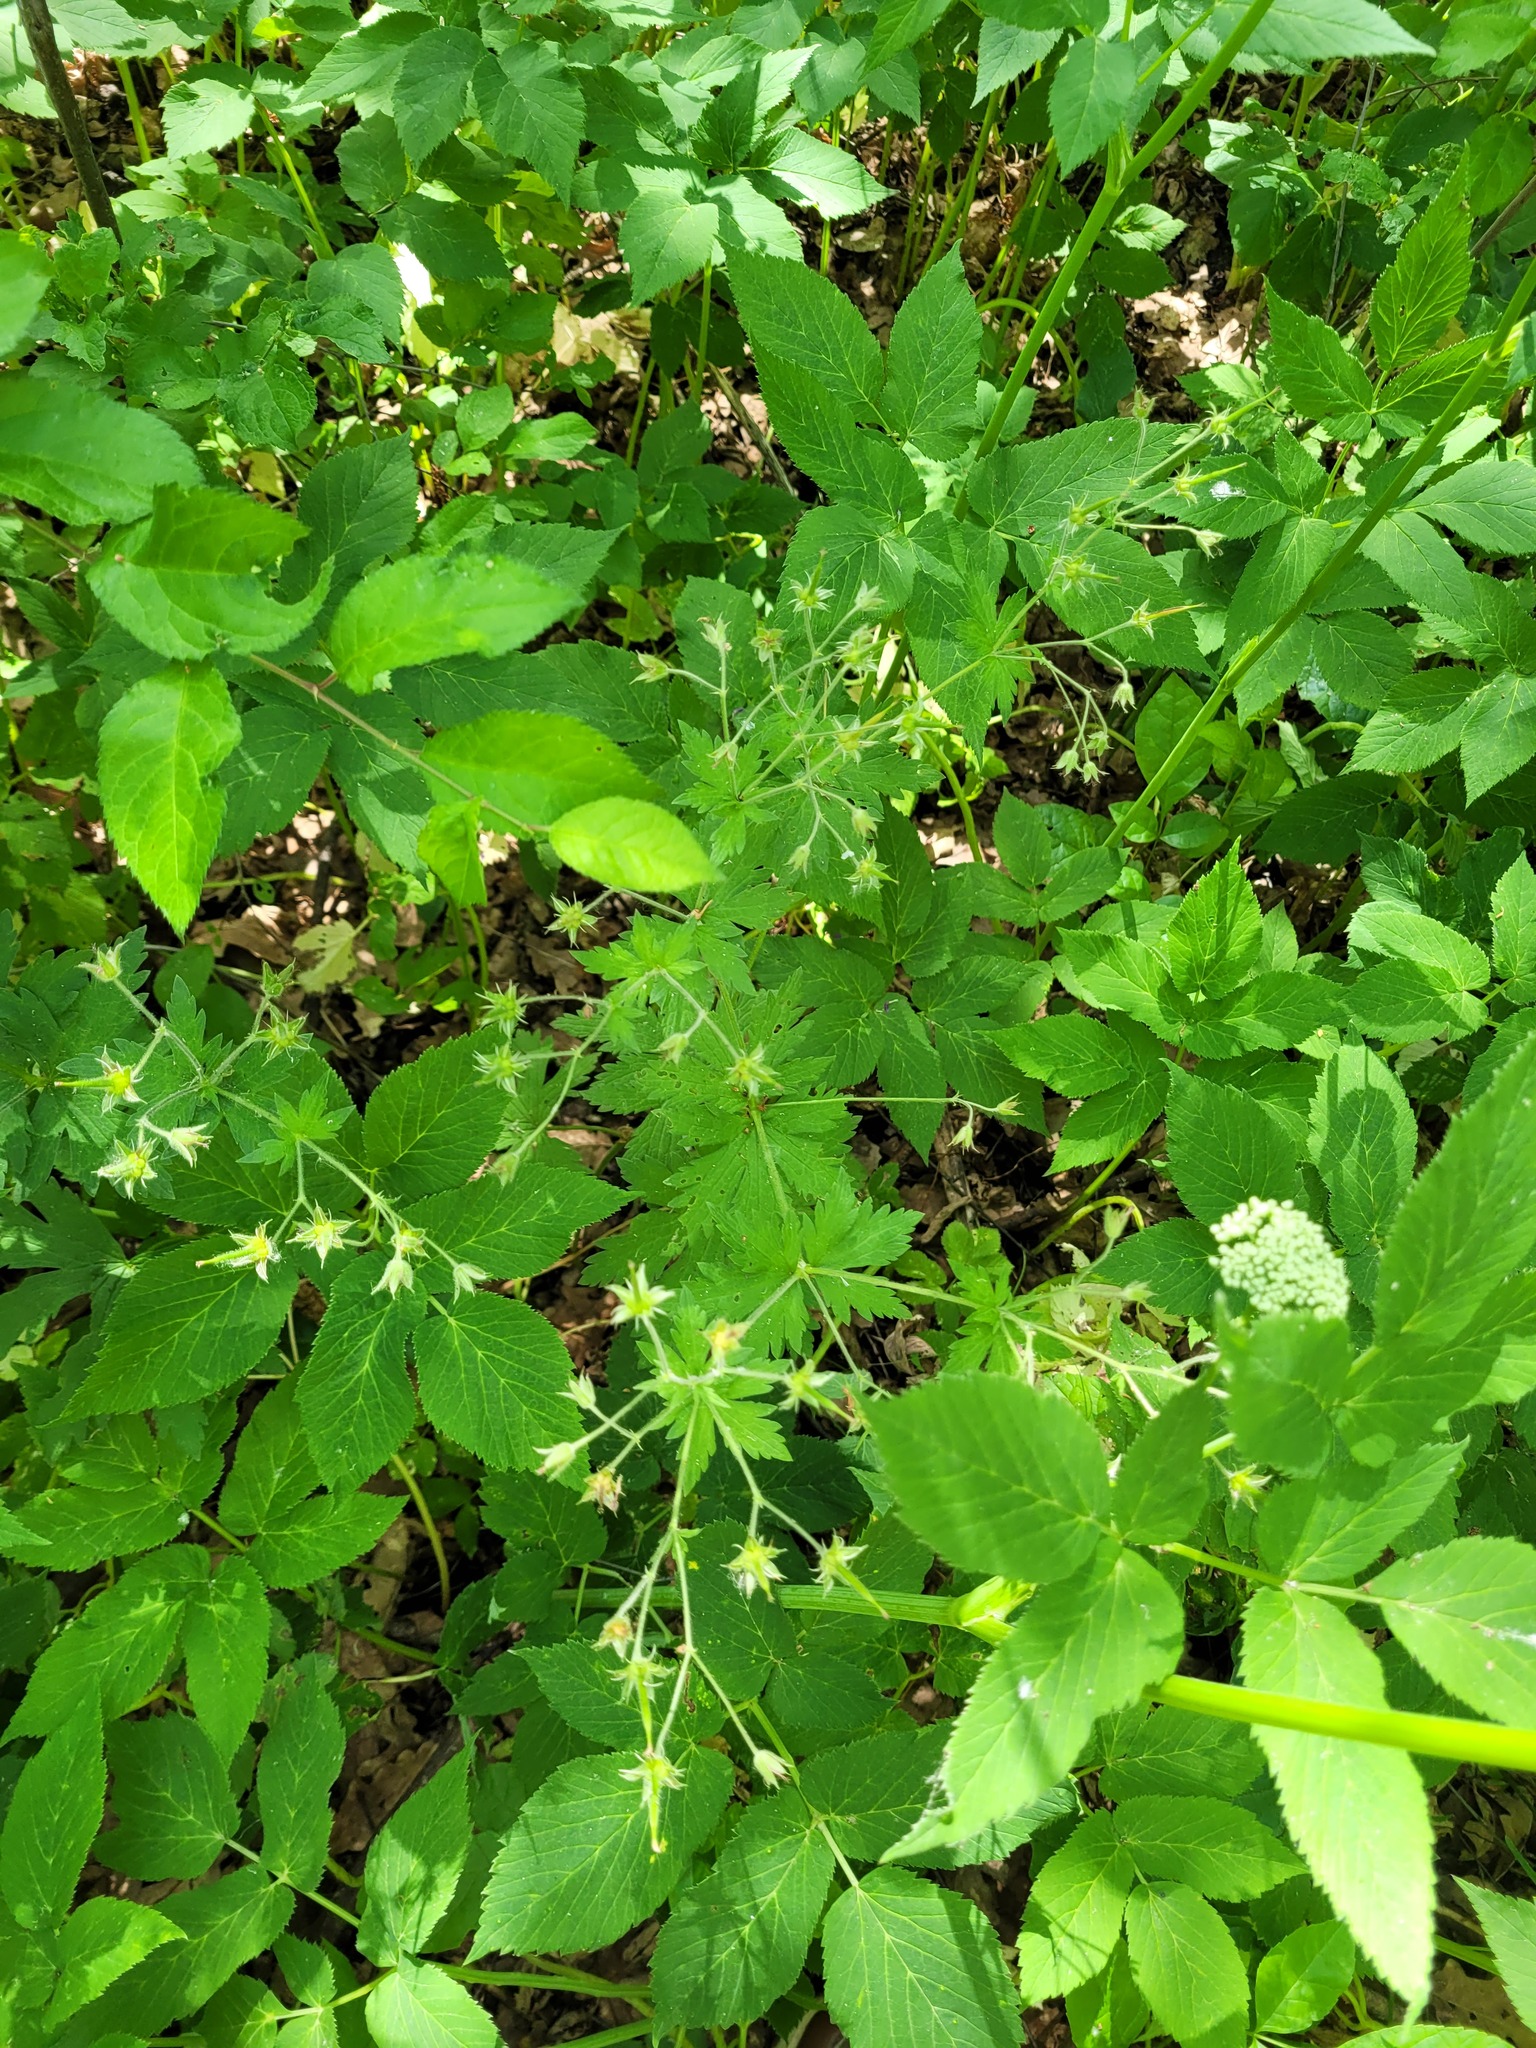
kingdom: Plantae
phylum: Tracheophyta
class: Magnoliopsida
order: Geraniales
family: Geraniaceae
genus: Geranium
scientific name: Geranium sylvaticum
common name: Wood crane's-bill
